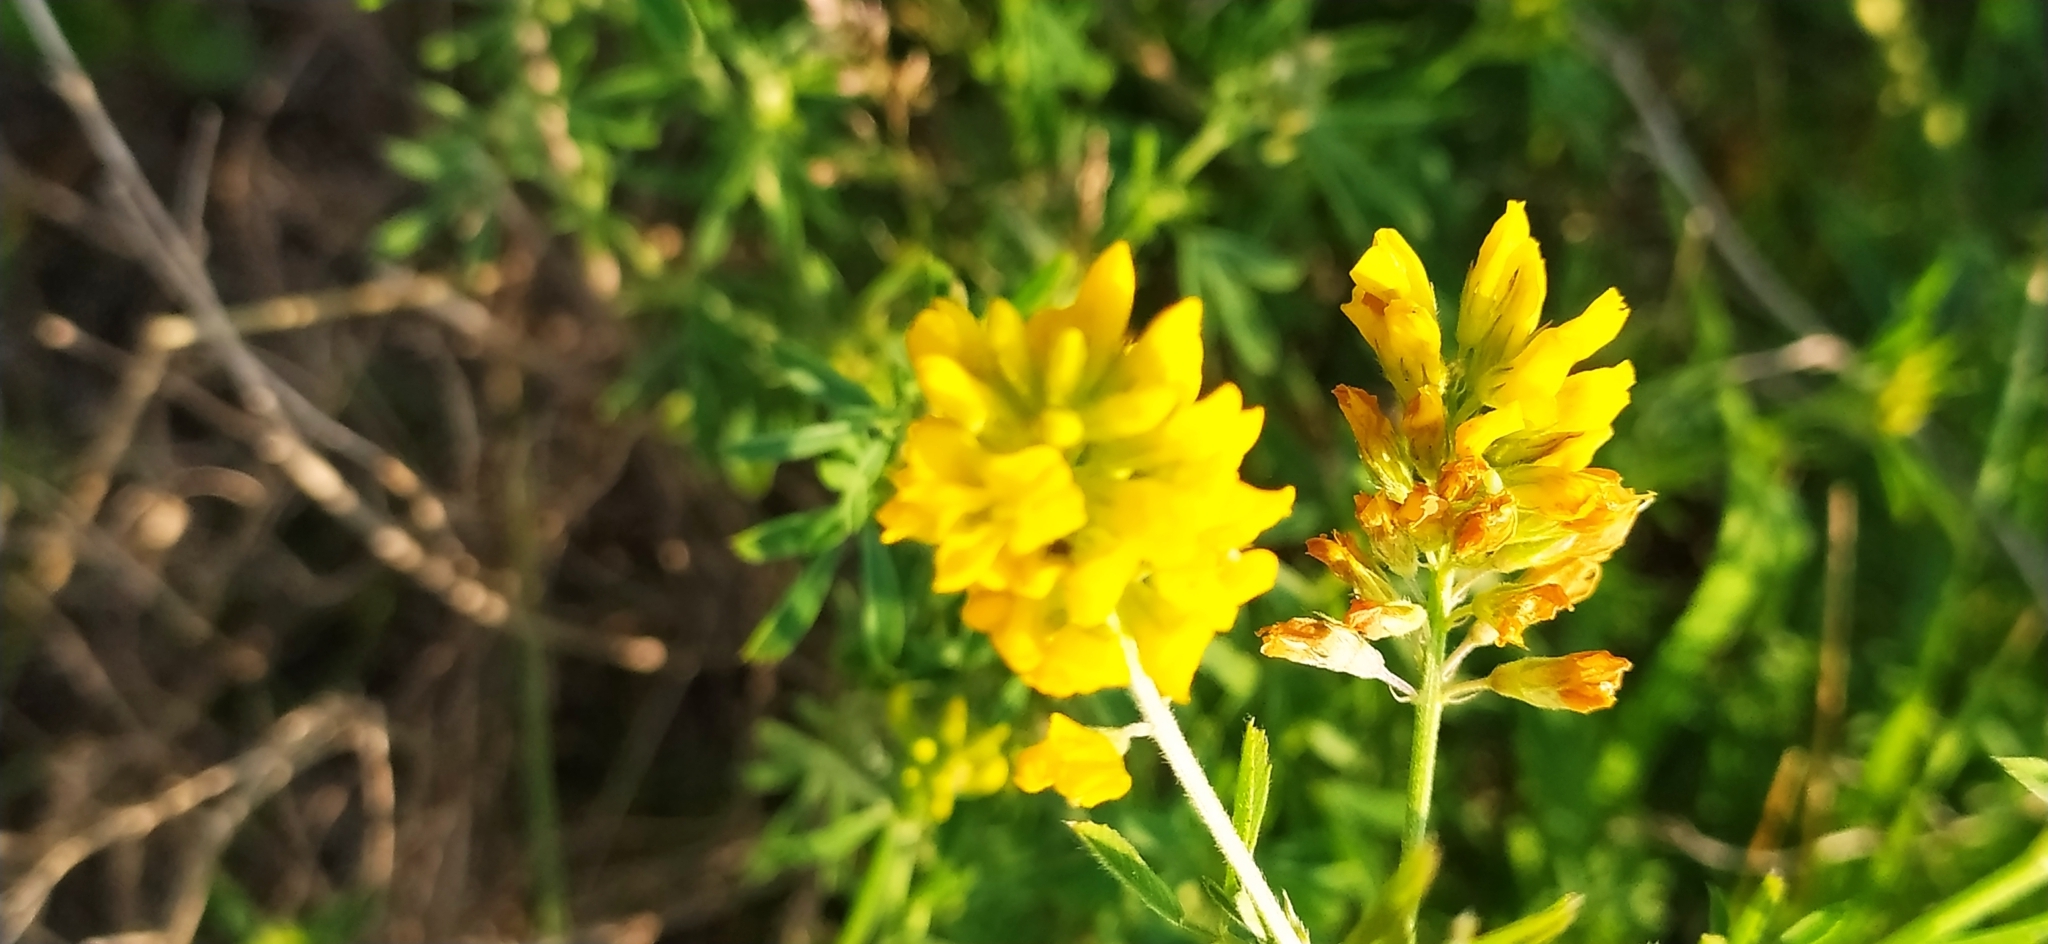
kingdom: Plantae
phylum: Tracheophyta
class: Magnoliopsida
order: Fabales
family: Fabaceae
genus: Medicago
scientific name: Medicago falcata
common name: Sickle medick
